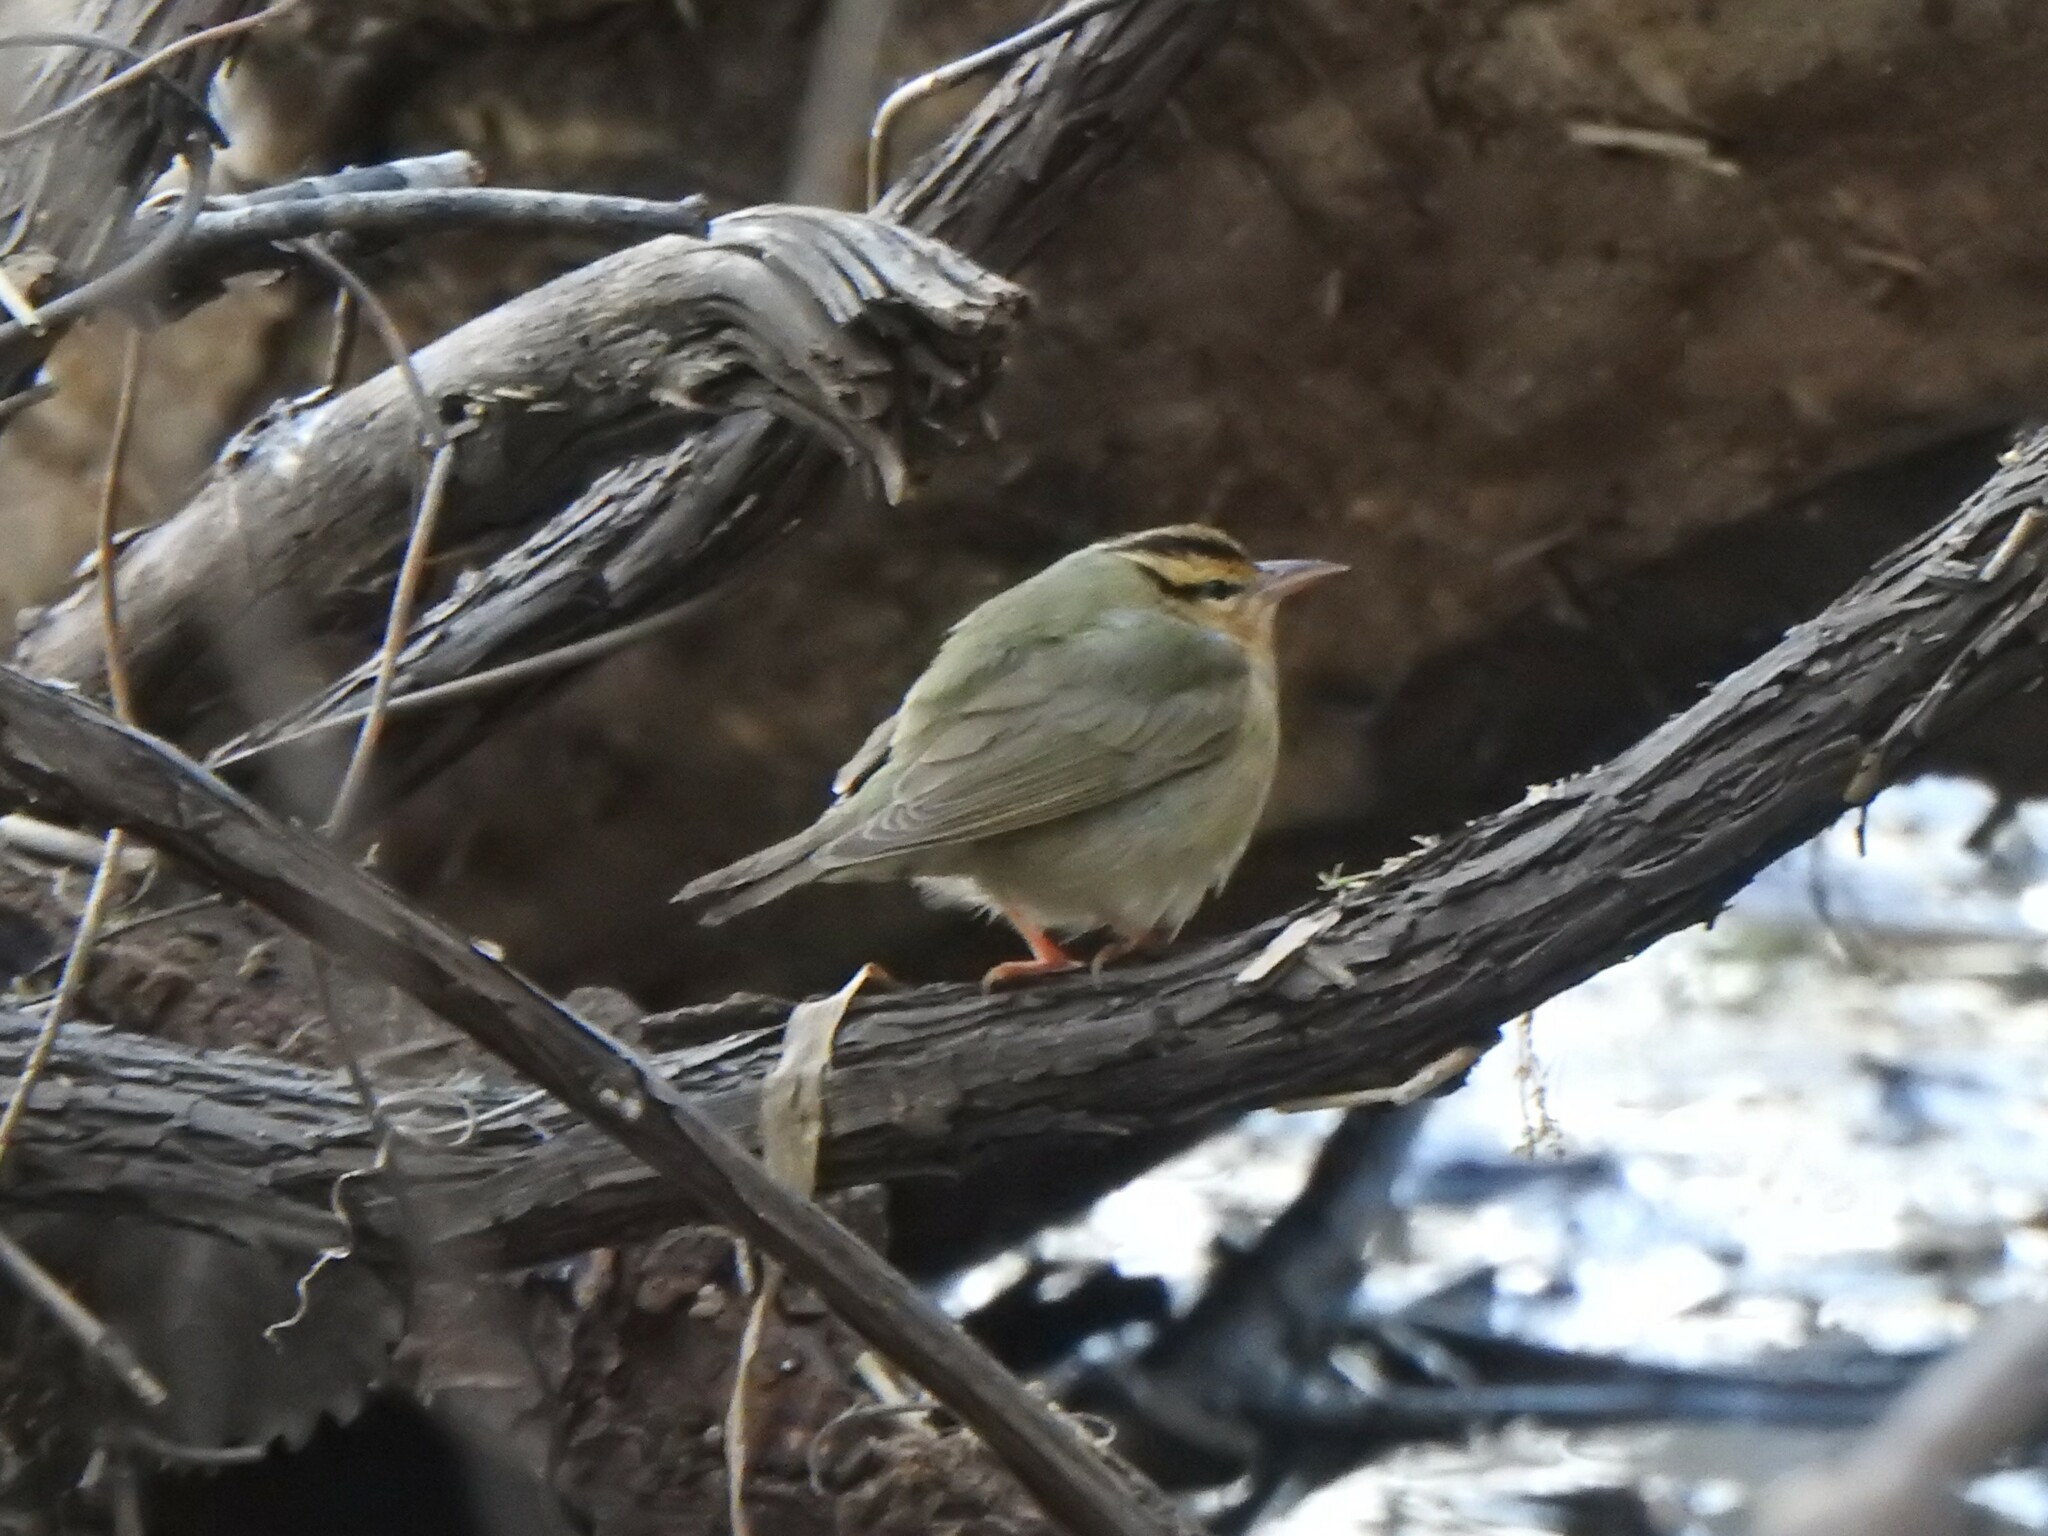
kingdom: Animalia
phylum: Chordata
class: Aves
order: Passeriformes
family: Parulidae
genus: Helmitheros
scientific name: Helmitheros vermivorum
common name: Worm-eating warbler
